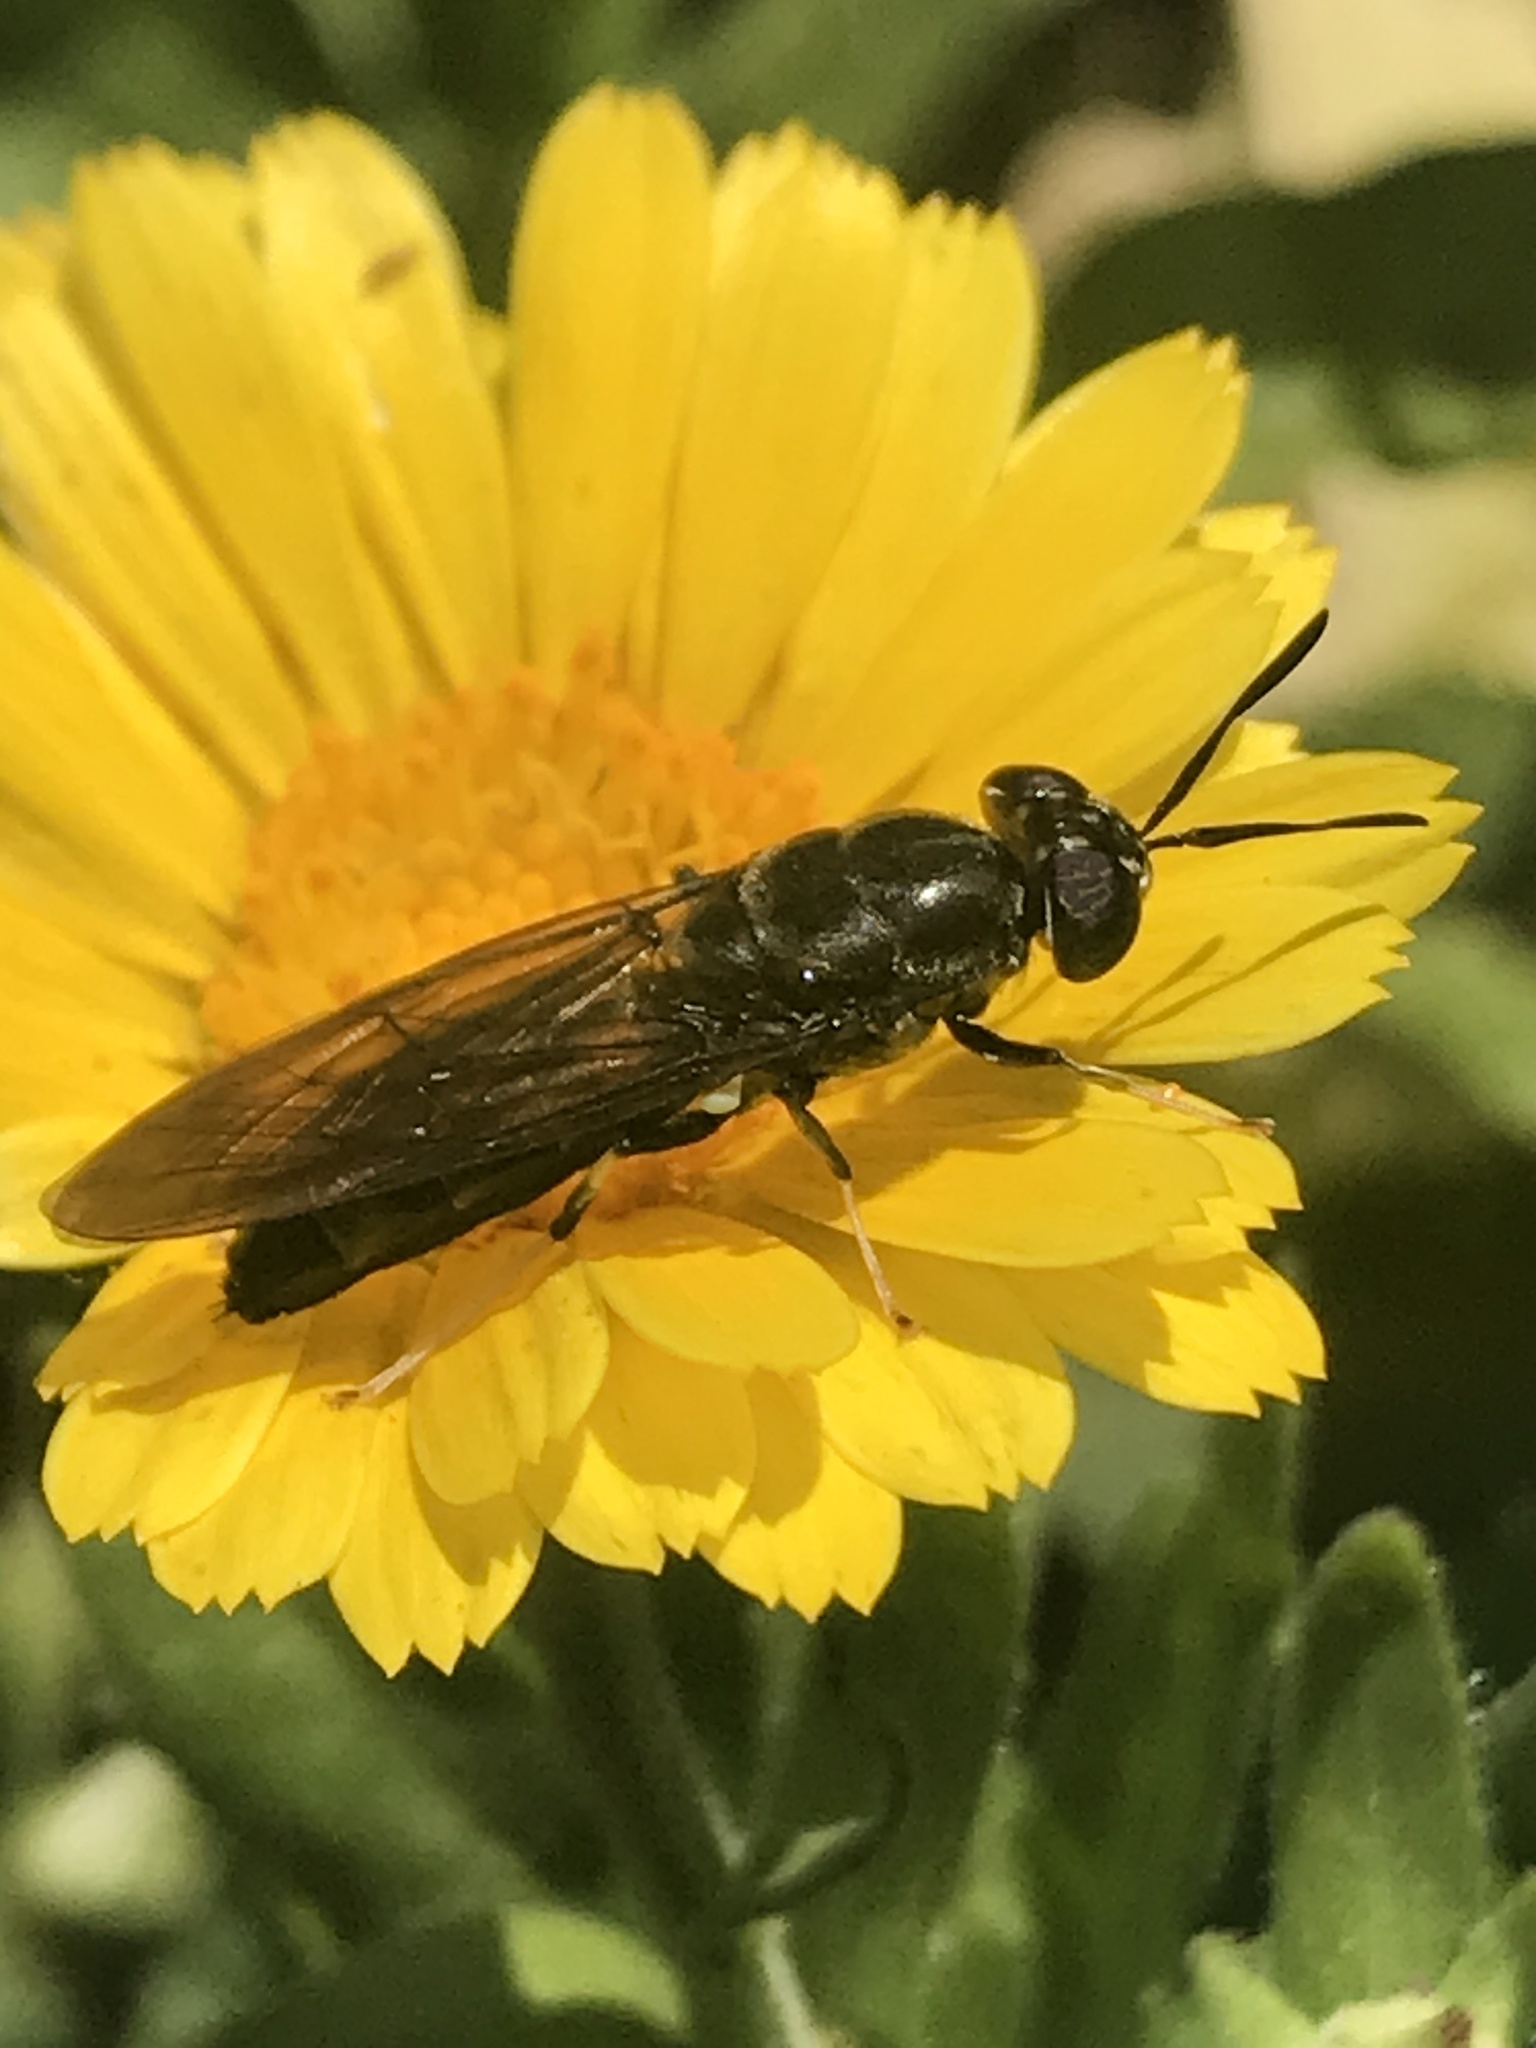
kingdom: Animalia
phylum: Arthropoda
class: Insecta
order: Diptera
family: Stratiomyidae
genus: Hermetia
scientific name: Hermetia illucens
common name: Black soldier fly
